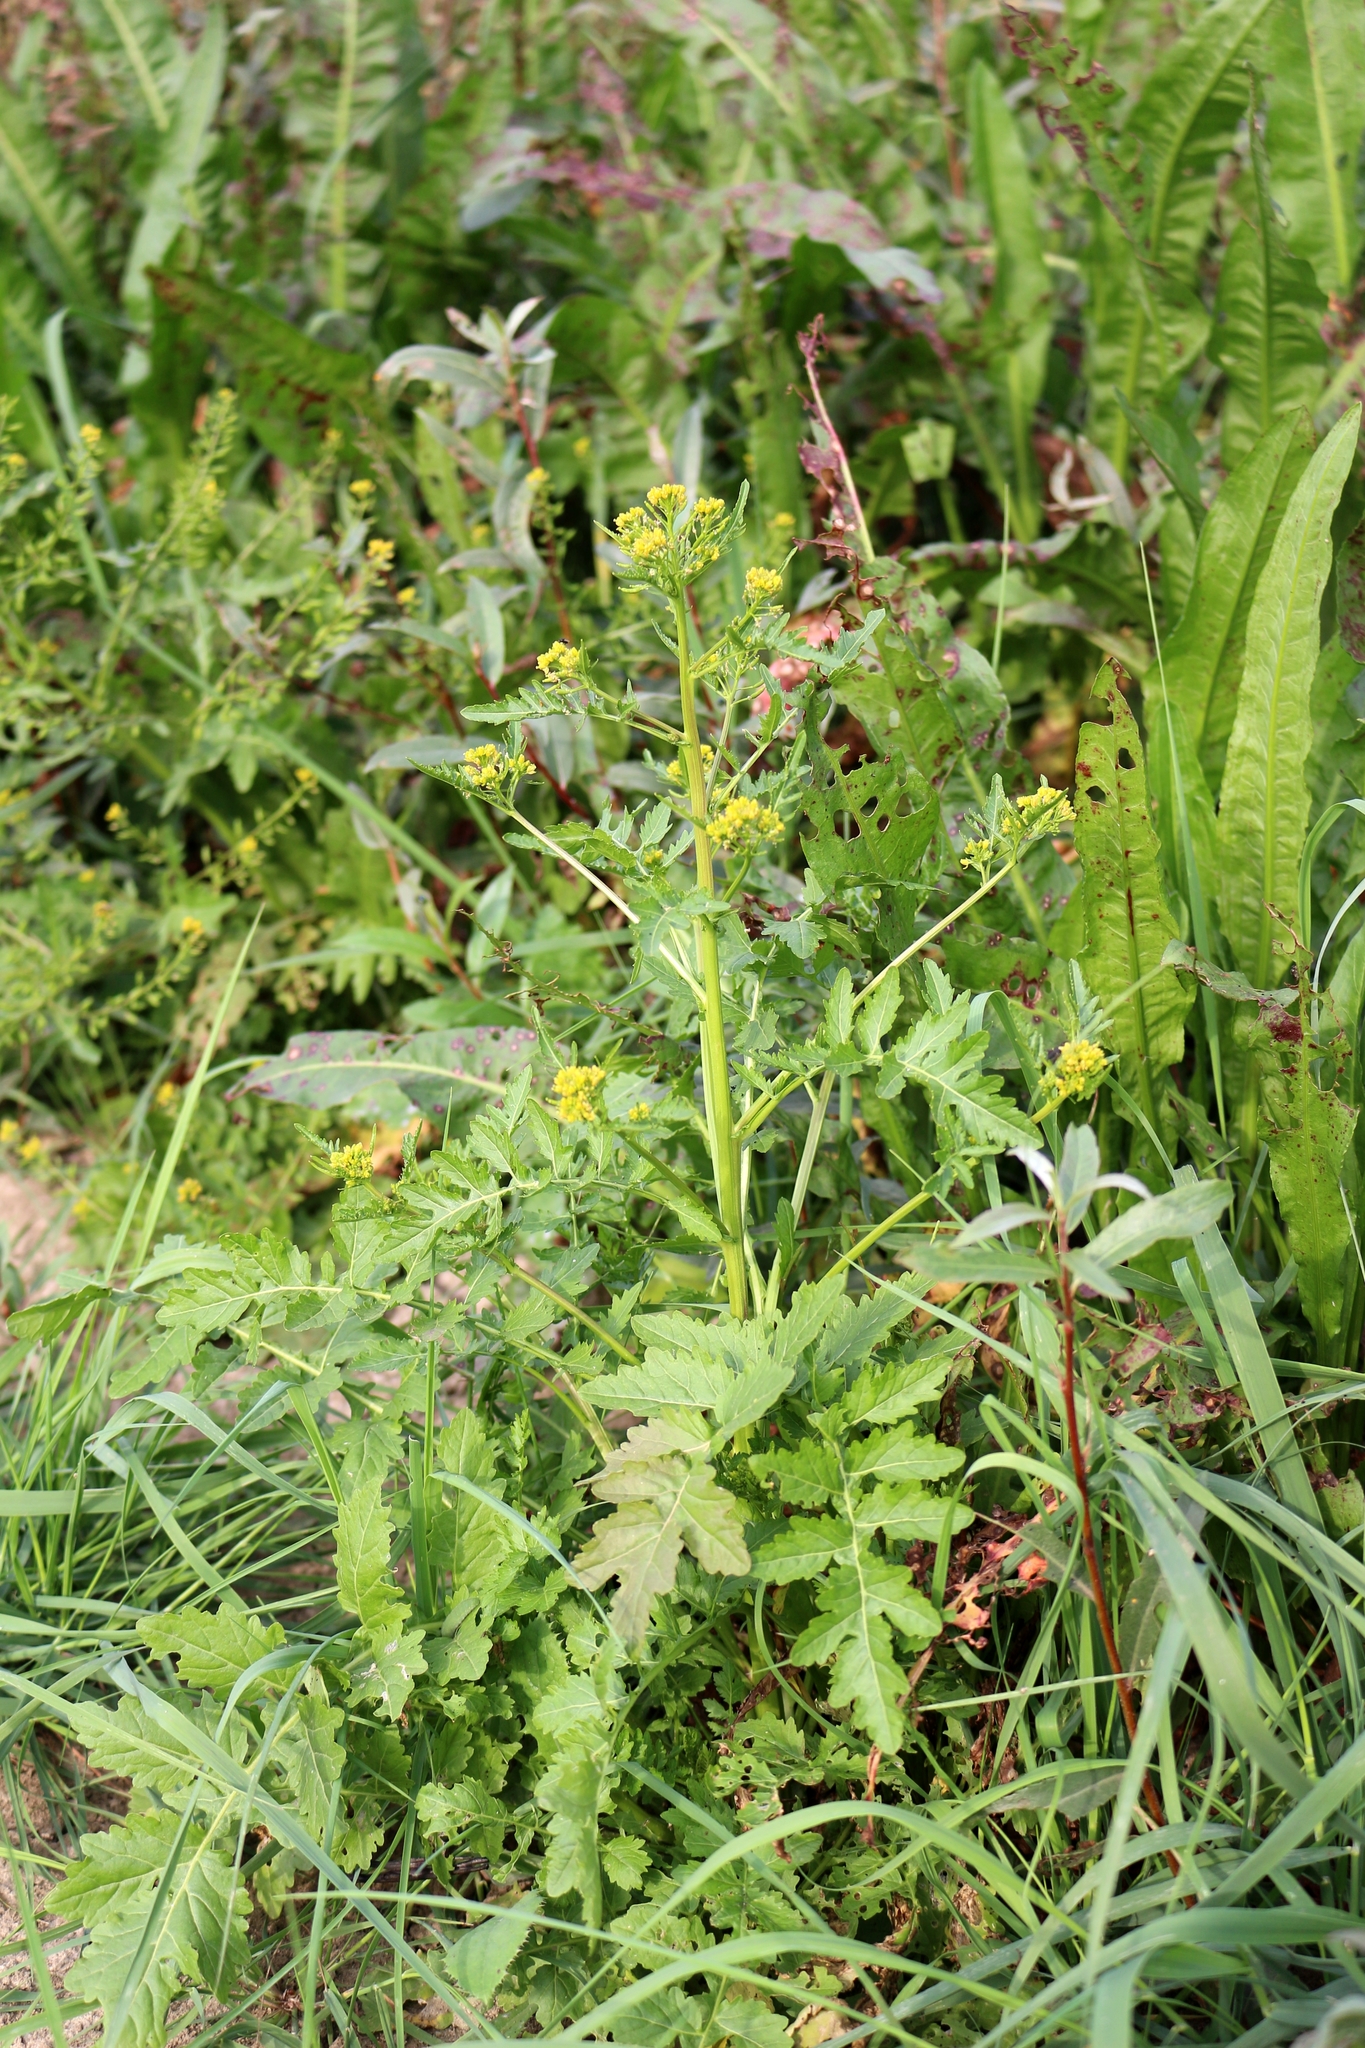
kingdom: Plantae
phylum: Tracheophyta
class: Magnoliopsida
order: Brassicales
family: Brassicaceae
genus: Rorippa
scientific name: Rorippa palustris
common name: Marsh yellow-cress
